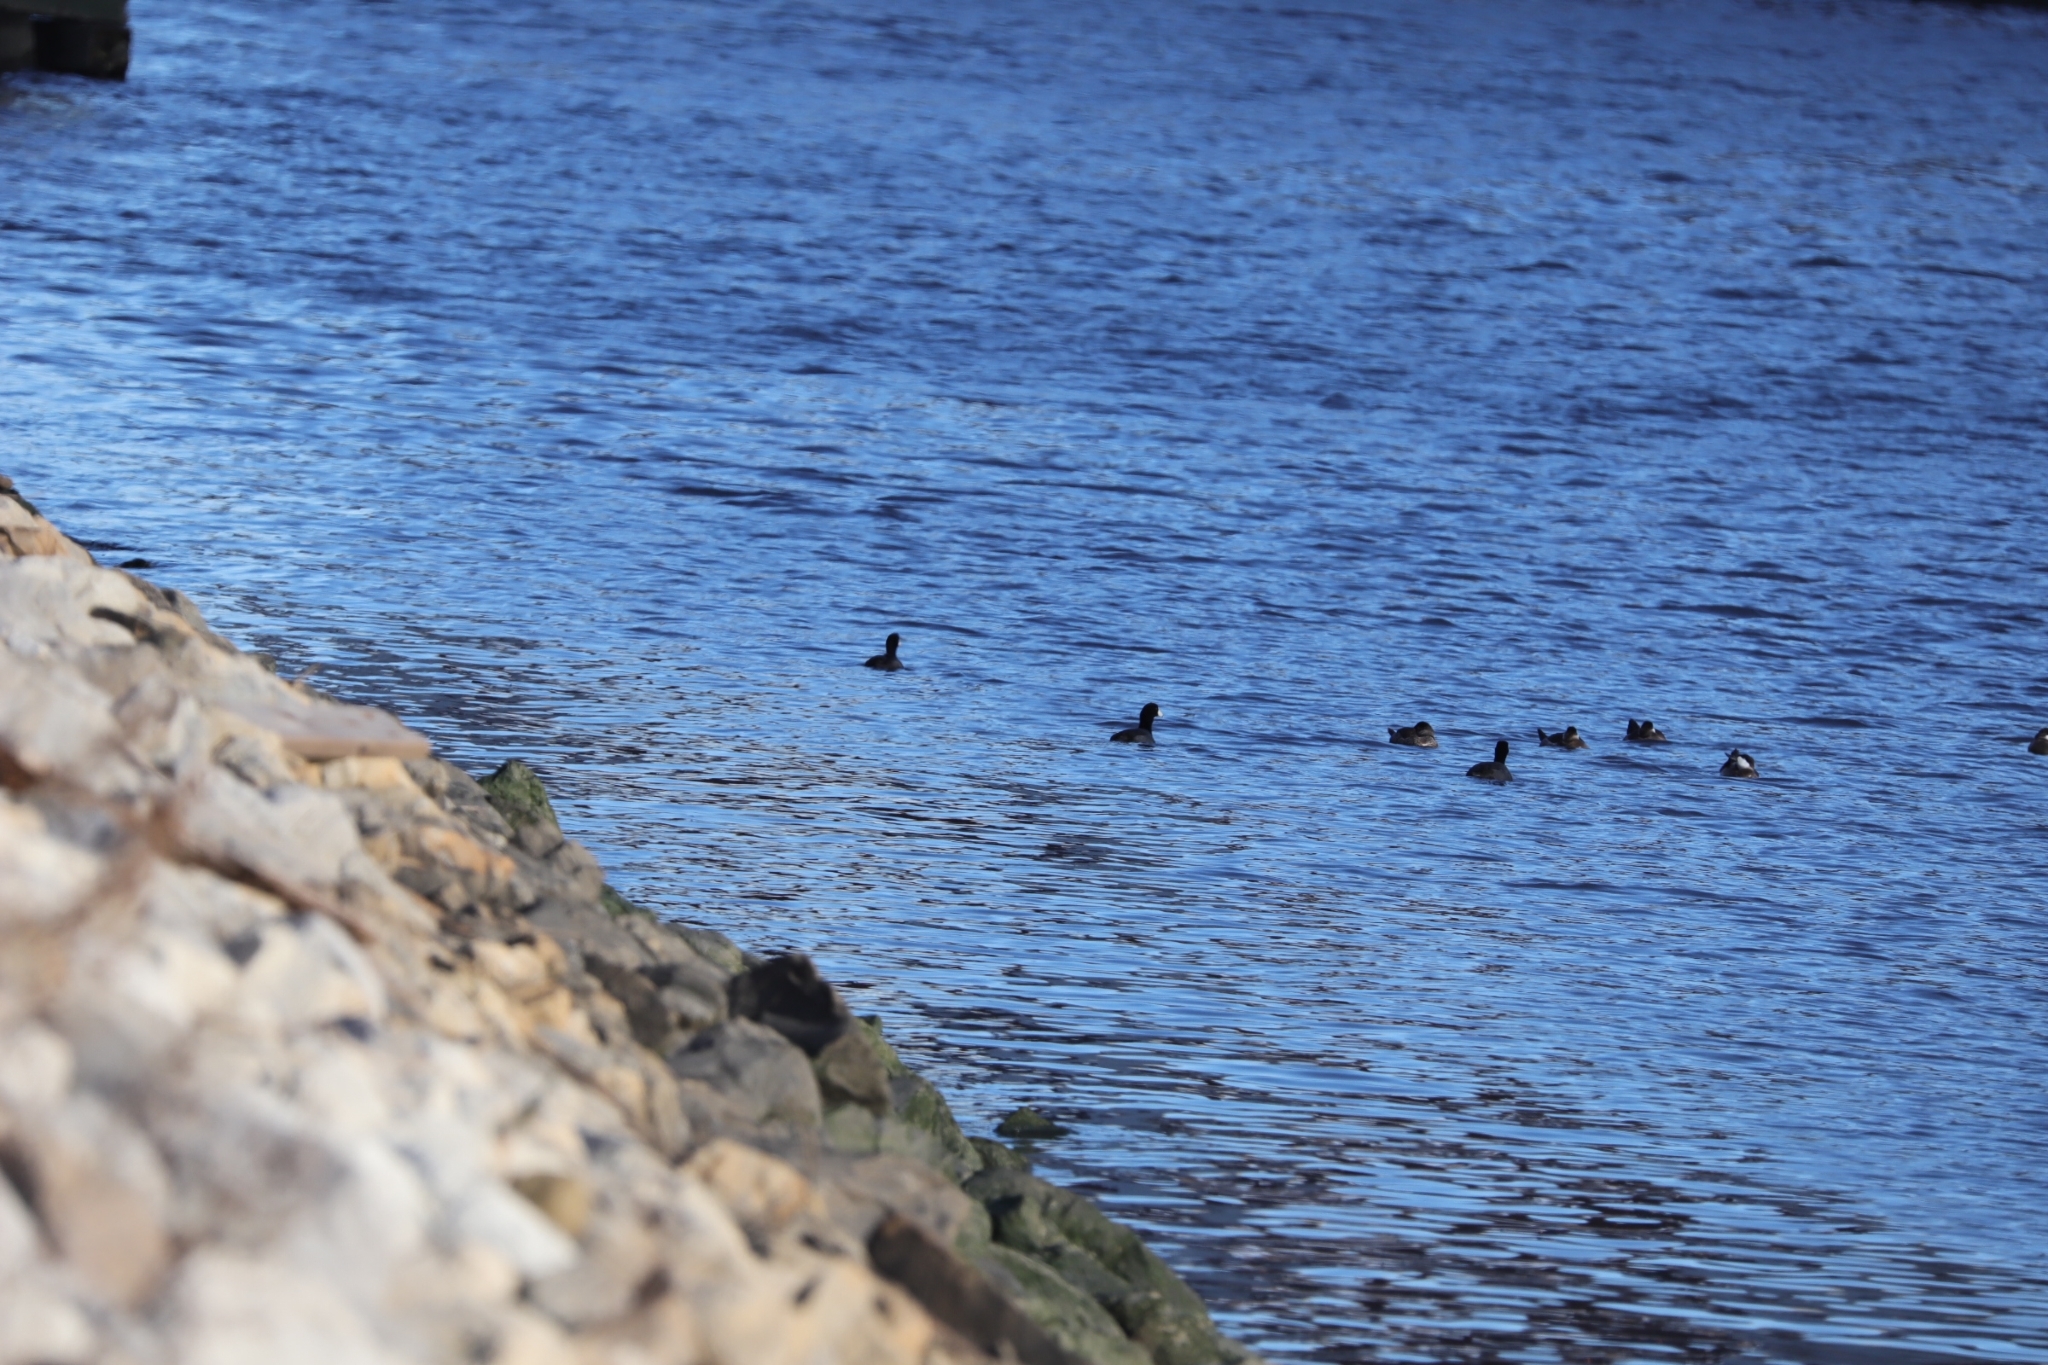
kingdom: Animalia
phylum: Chordata
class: Aves
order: Gruiformes
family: Rallidae
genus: Fulica
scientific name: Fulica americana
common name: American coot
